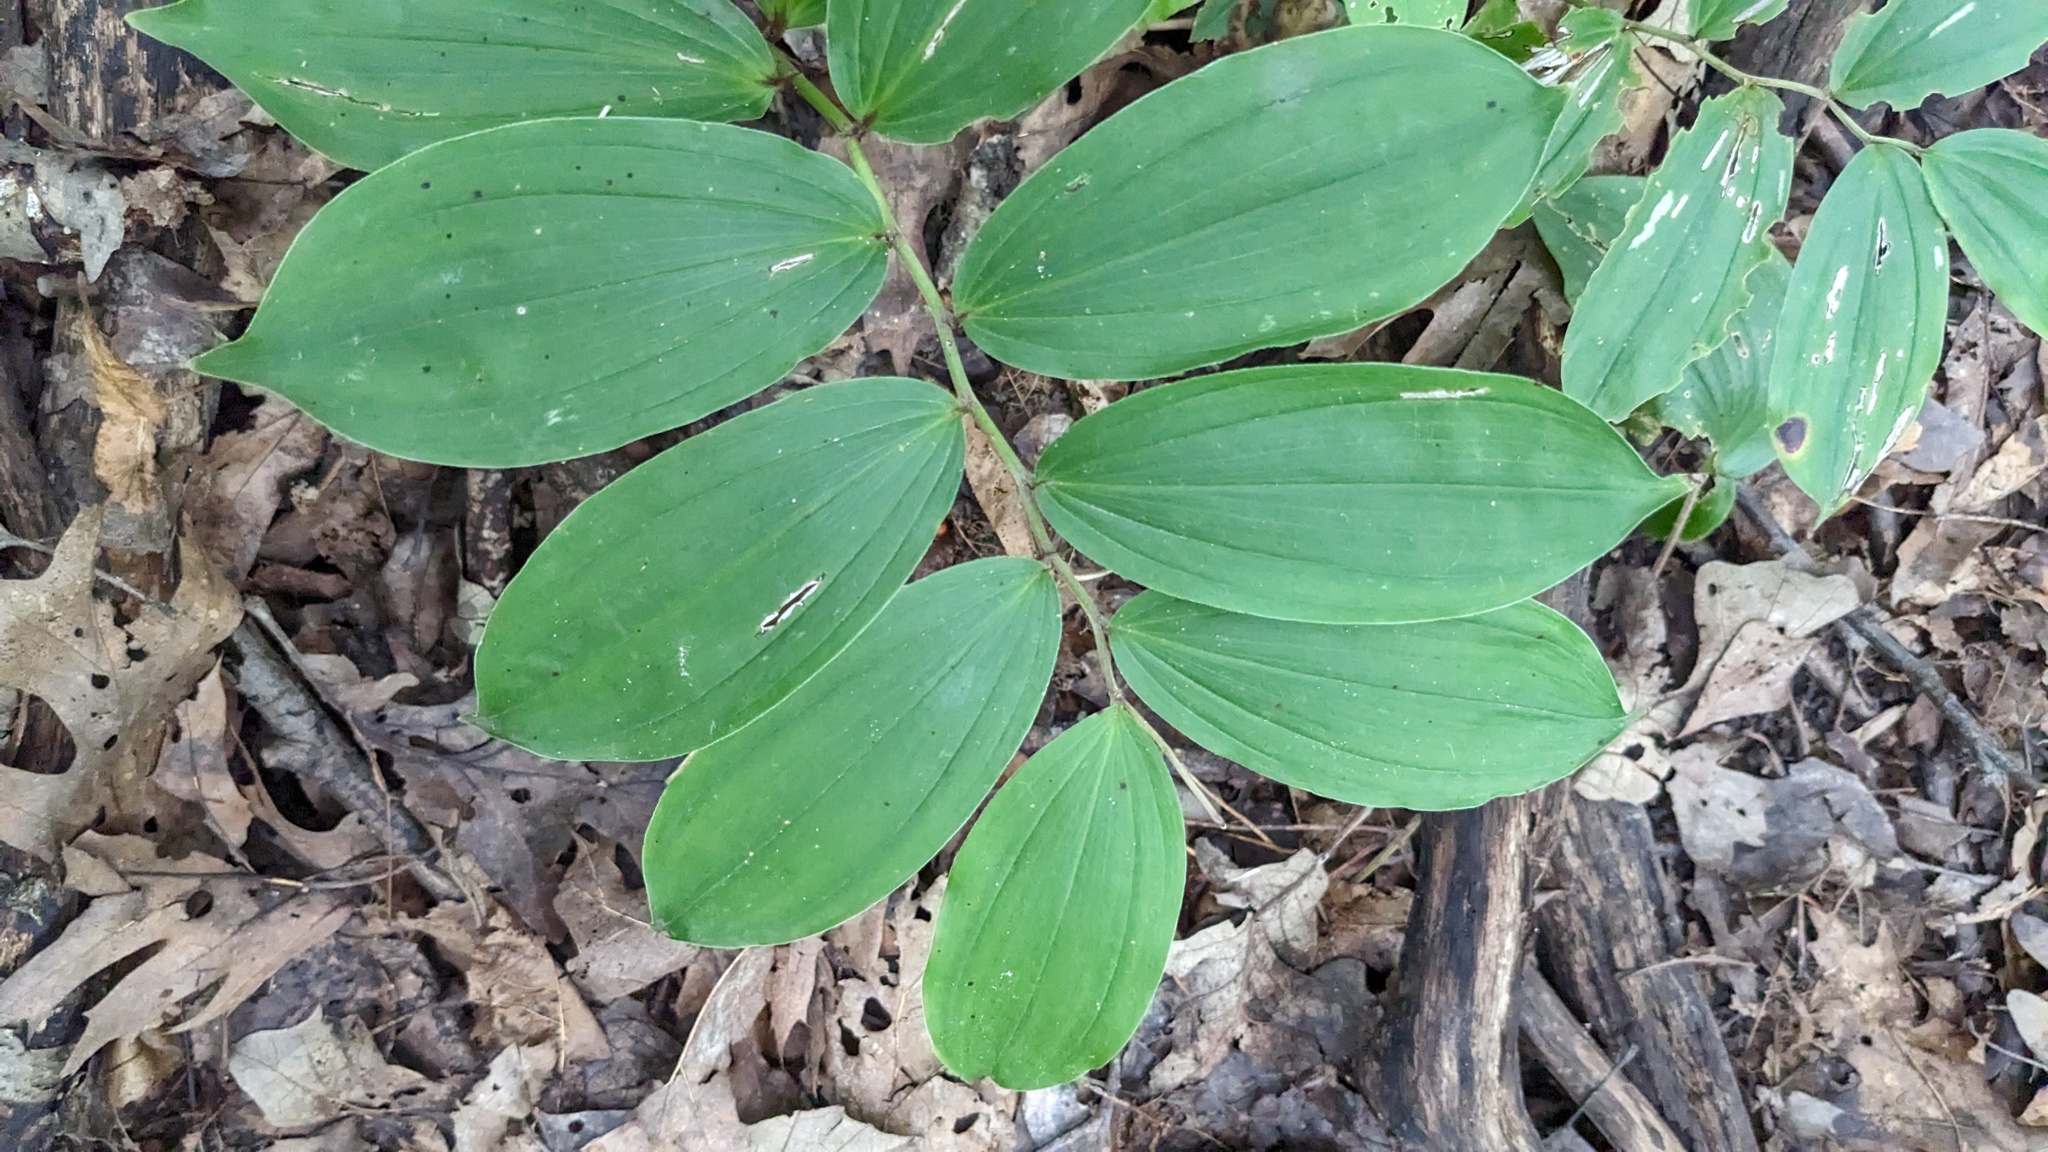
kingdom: Plantae
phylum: Tracheophyta
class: Liliopsida
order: Asparagales
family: Asparagaceae
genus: Maianthemum
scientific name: Maianthemum racemosum
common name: False spikenard
